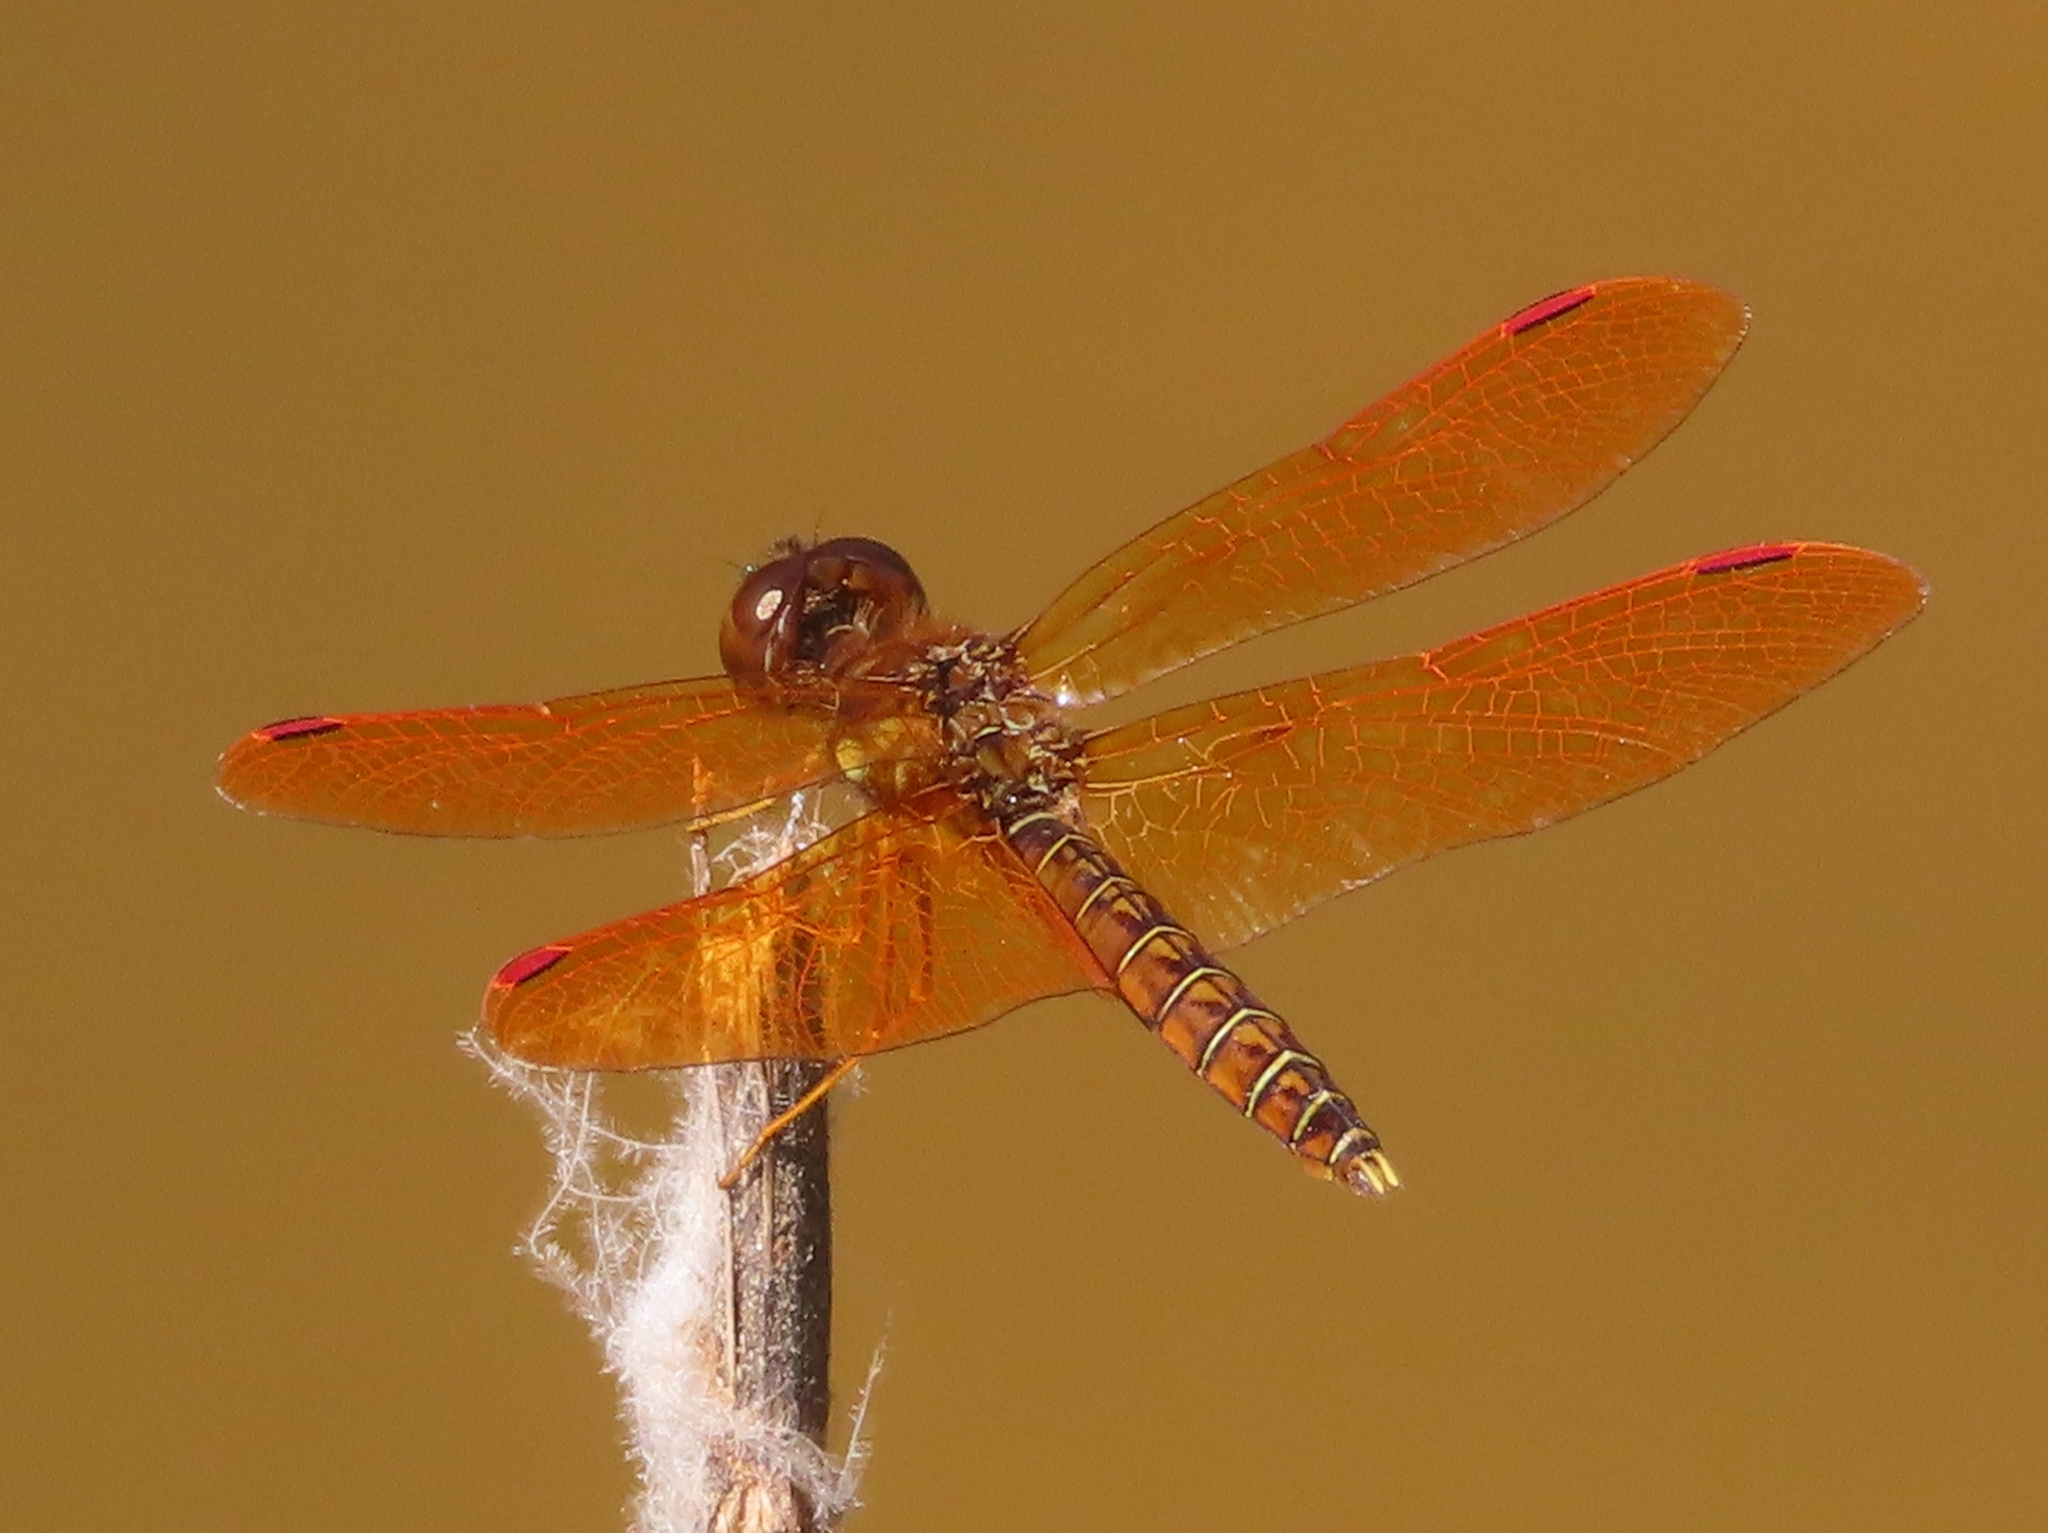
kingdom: Animalia
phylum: Arthropoda
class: Insecta
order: Odonata
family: Libellulidae
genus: Perithemis
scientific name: Perithemis tenera
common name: Eastern amberwing
